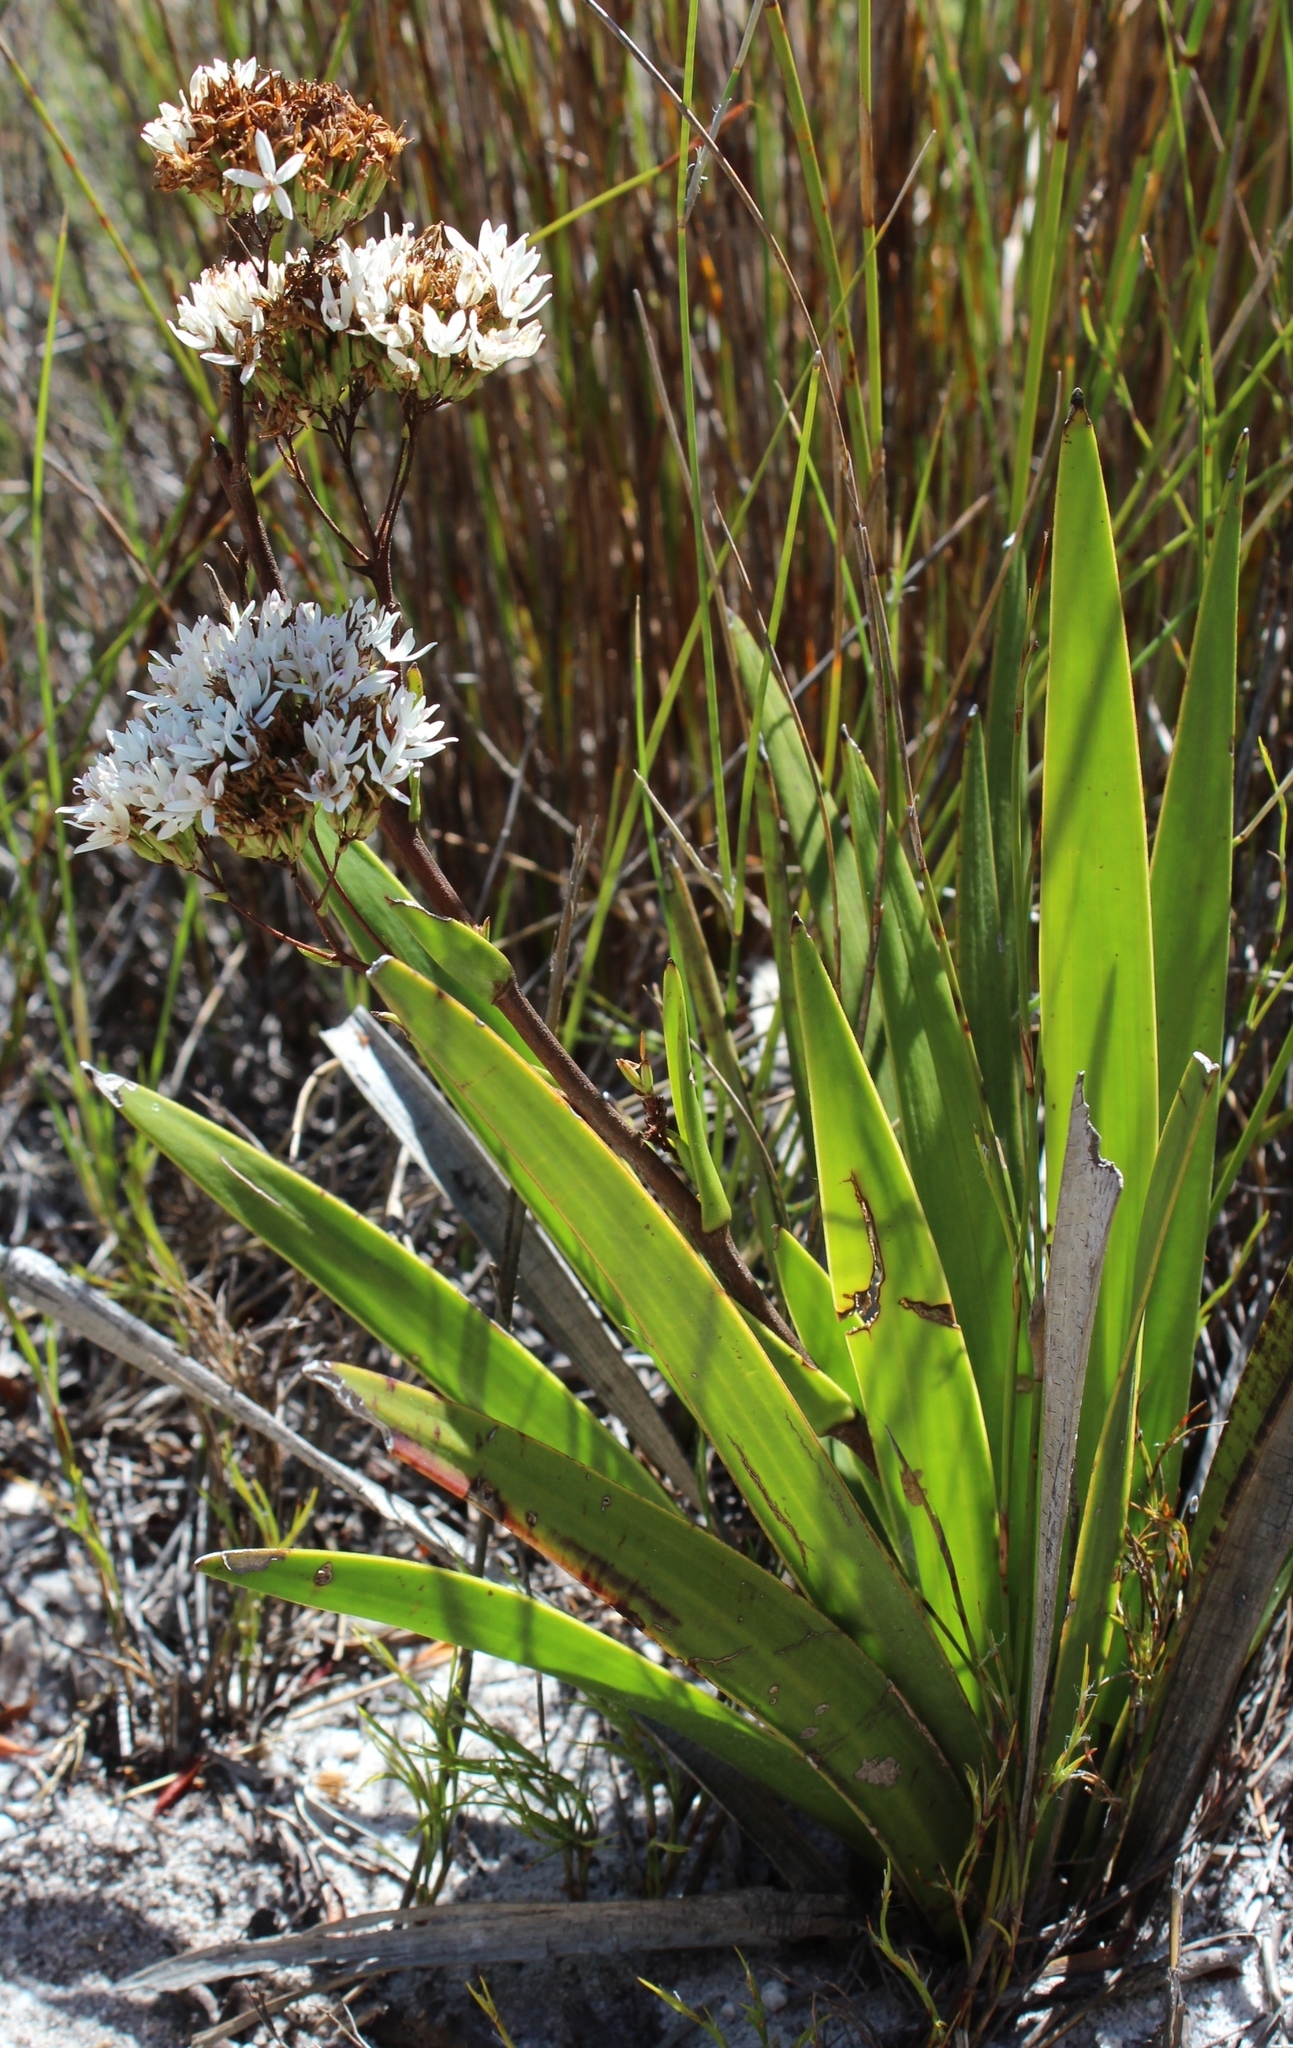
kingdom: Plantae
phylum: Tracheophyta
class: Magnoliopsida
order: Asterales
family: Asteraceae
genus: Corymbium
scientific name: Corymbium enerve
